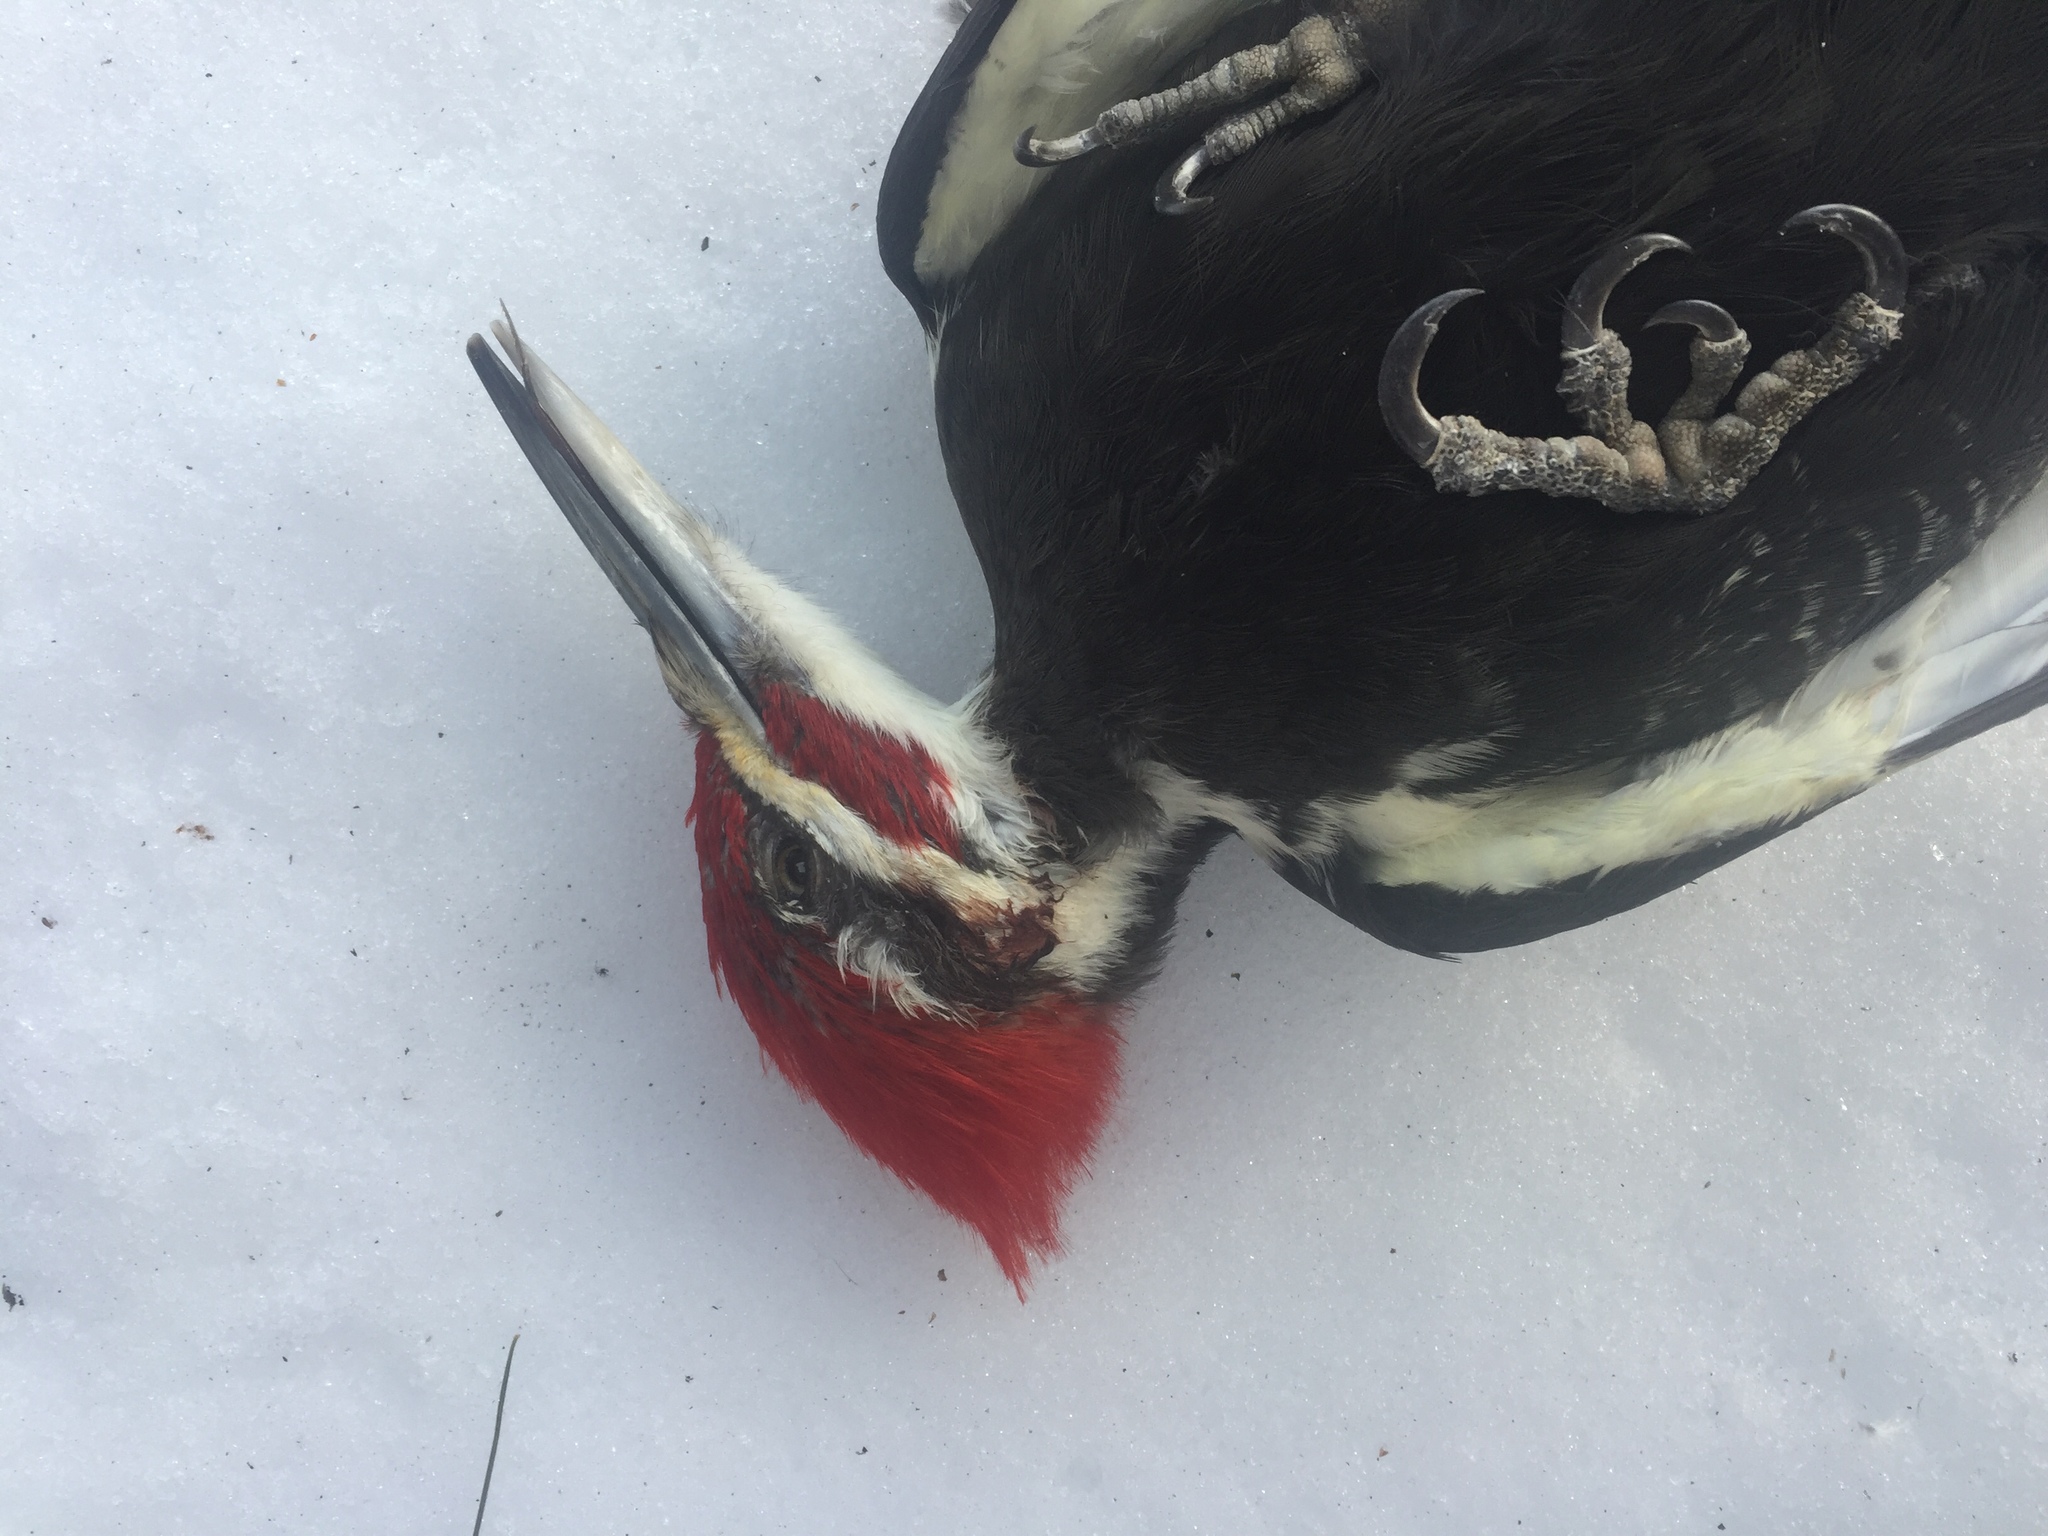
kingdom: Animalia
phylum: Chordata
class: Aves
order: Piciformes
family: Picidae
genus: Dryocopus
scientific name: Dryocopus pileatus
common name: Pileated woodpecker
